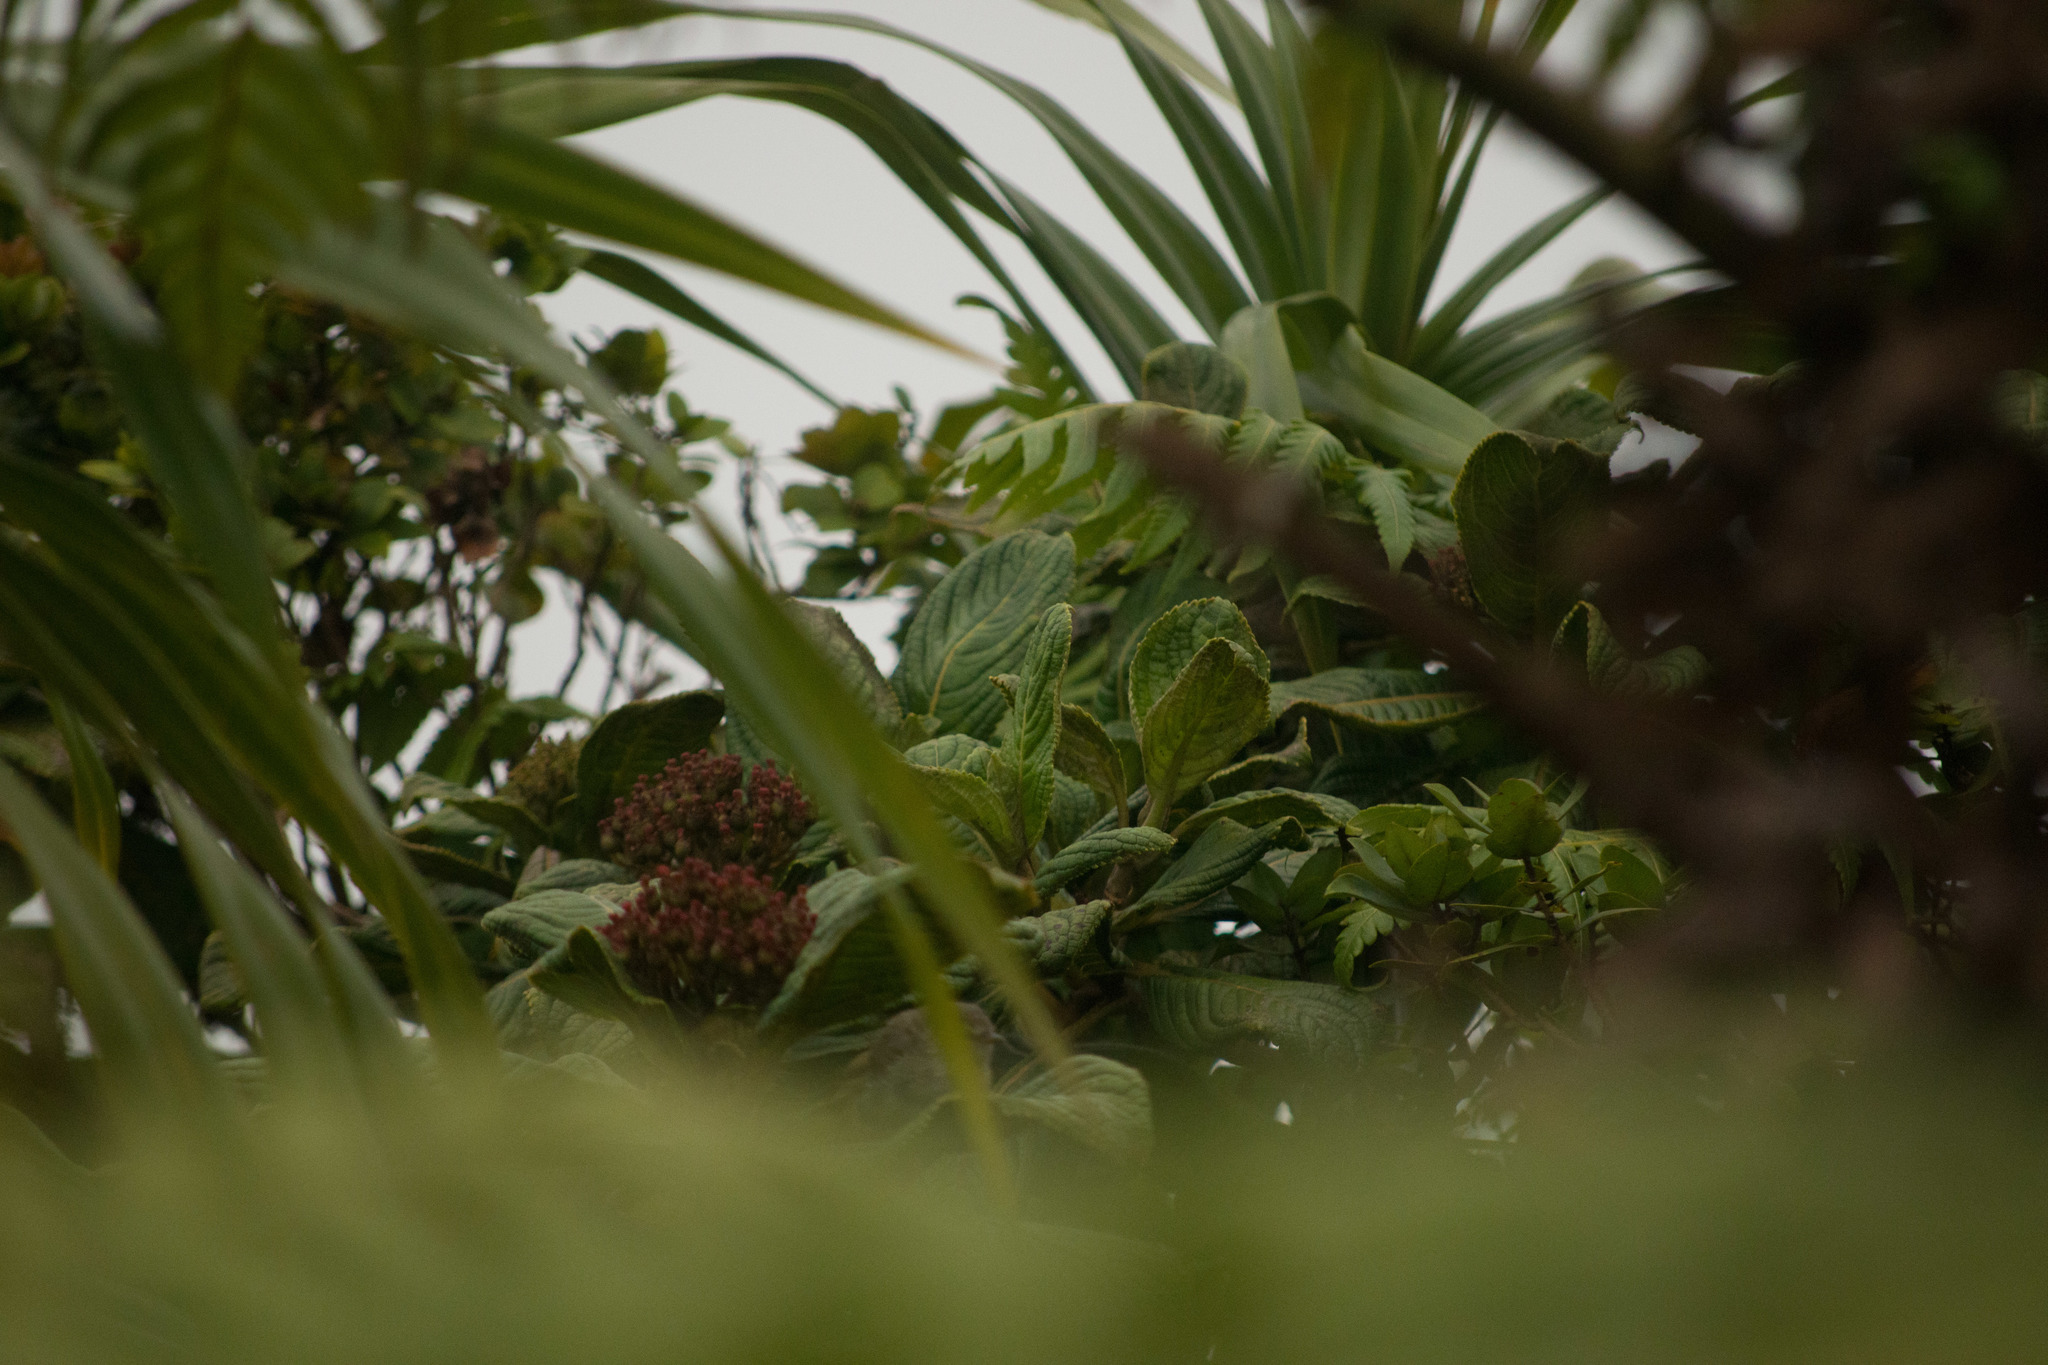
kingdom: Plantae
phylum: Tracheophyta
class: Magnoliopsida
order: Cornales
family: Hydrangeaceae
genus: Hydrangea
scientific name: Hydrangea arguta
